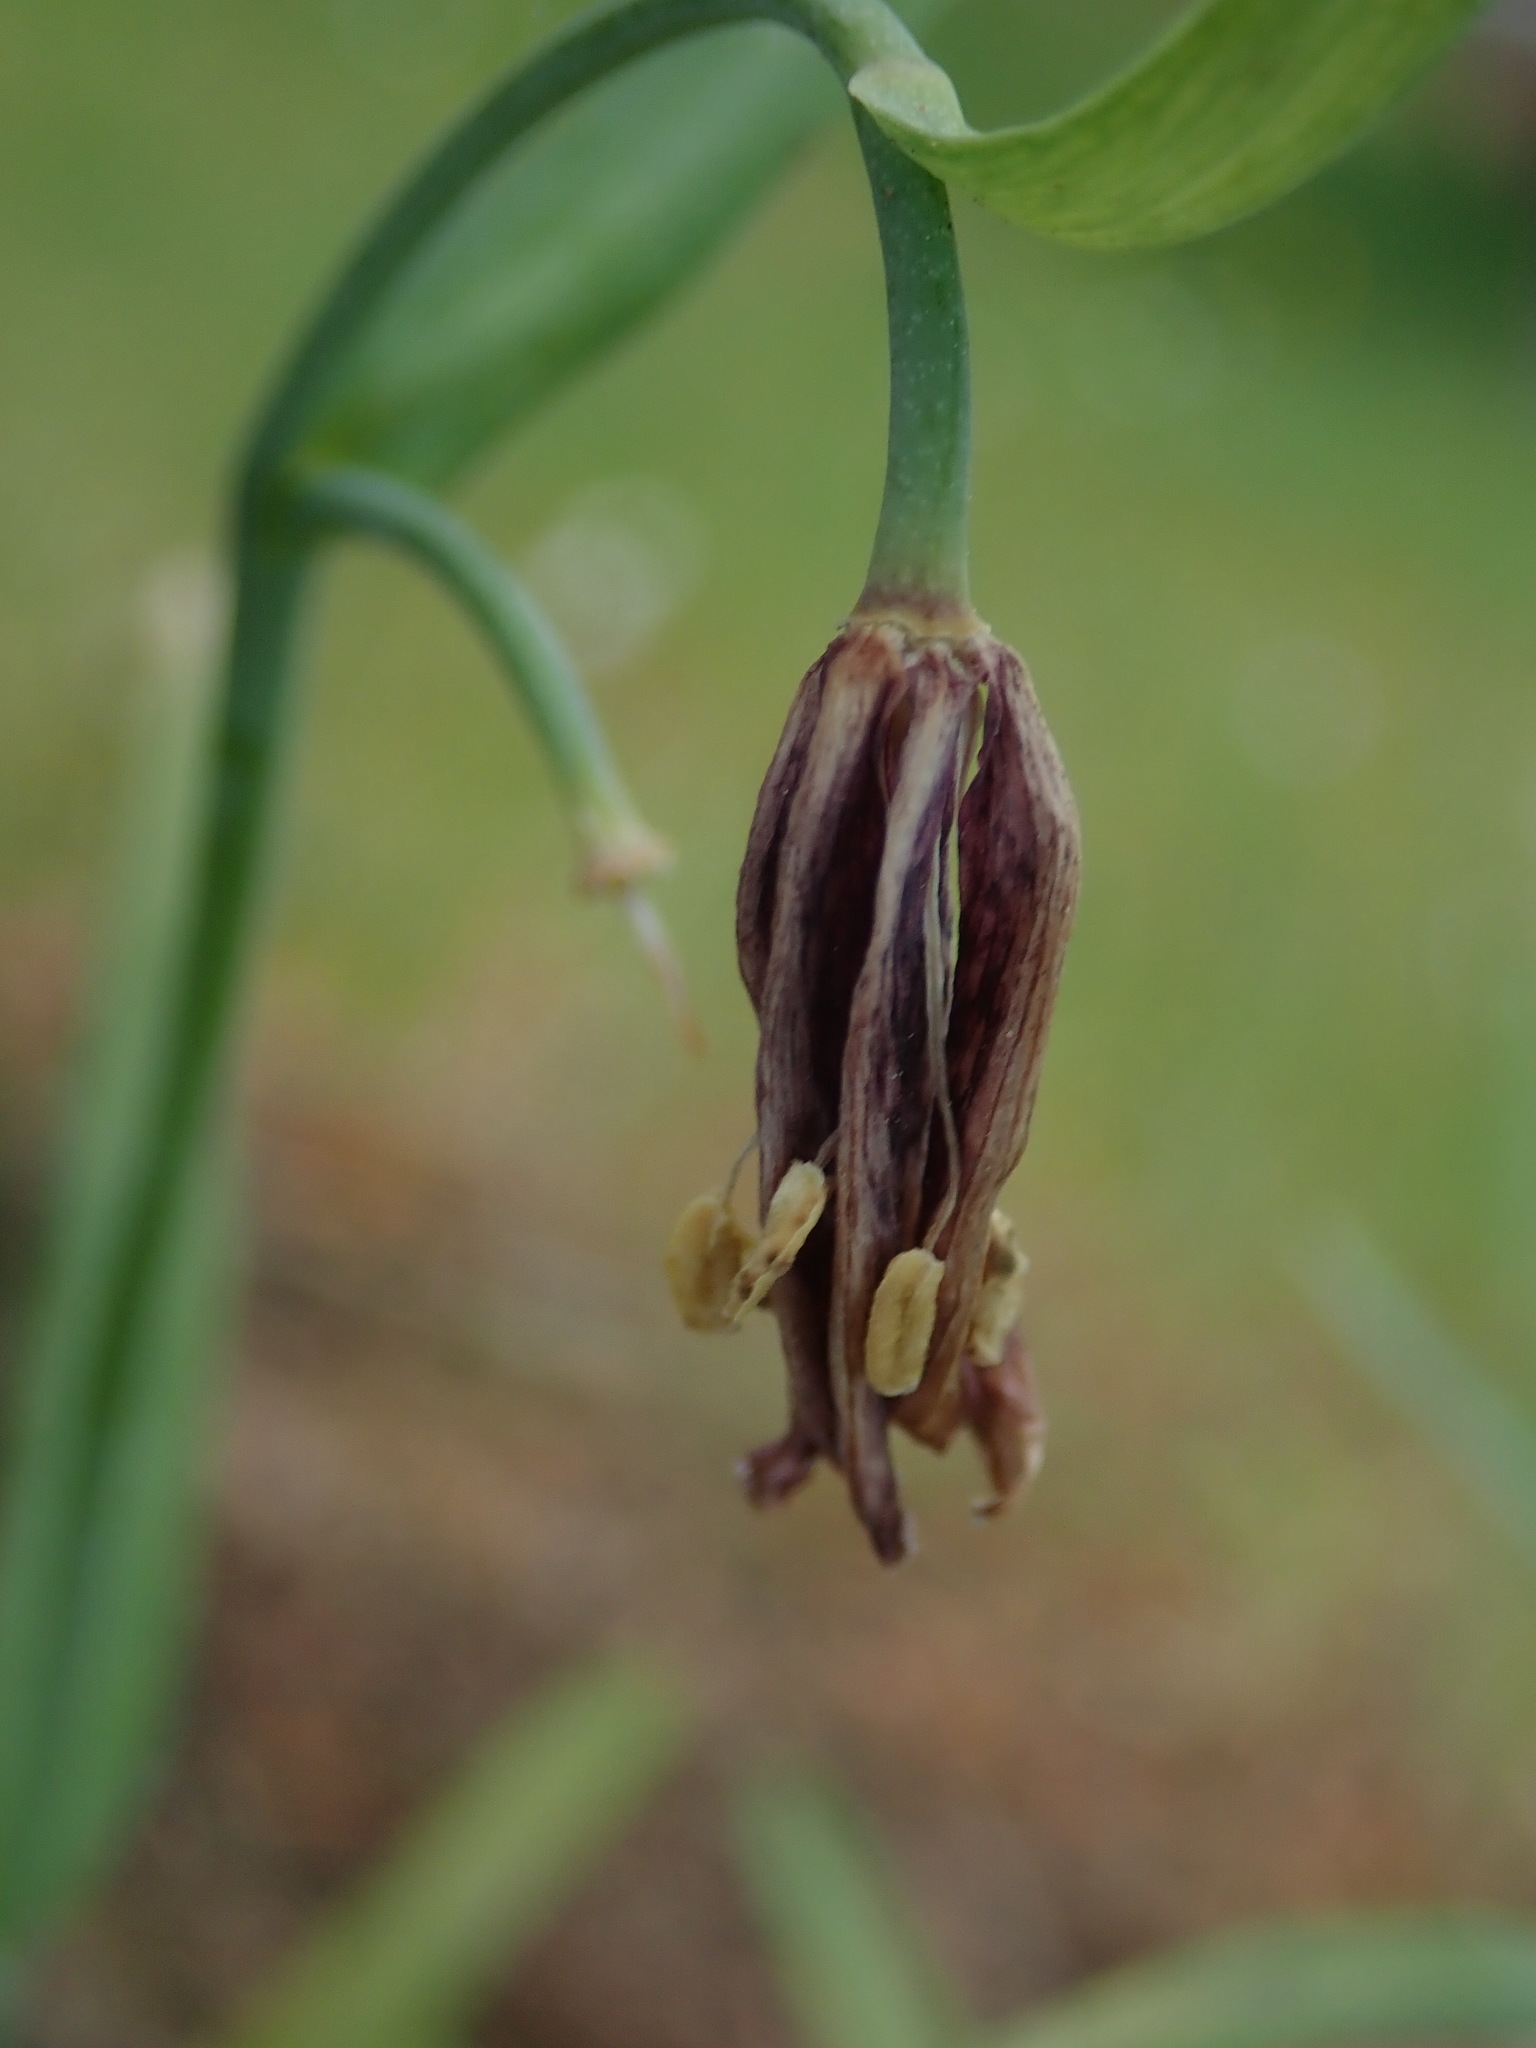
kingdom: Plantae
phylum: Tracheophyta
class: Liliopsida
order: Liliales
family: Liliaceae
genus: Fritillaria
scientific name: Fritillaria affinis
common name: Ojai fritillary
